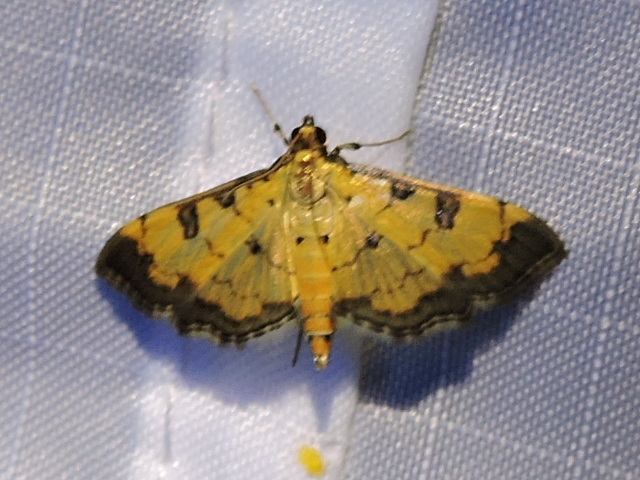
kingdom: Animalia
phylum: Arthropoda
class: Insecta
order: Lepidoptera
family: Crambidae
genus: Ategumia
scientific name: Ategumia ebulealis
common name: Moth
